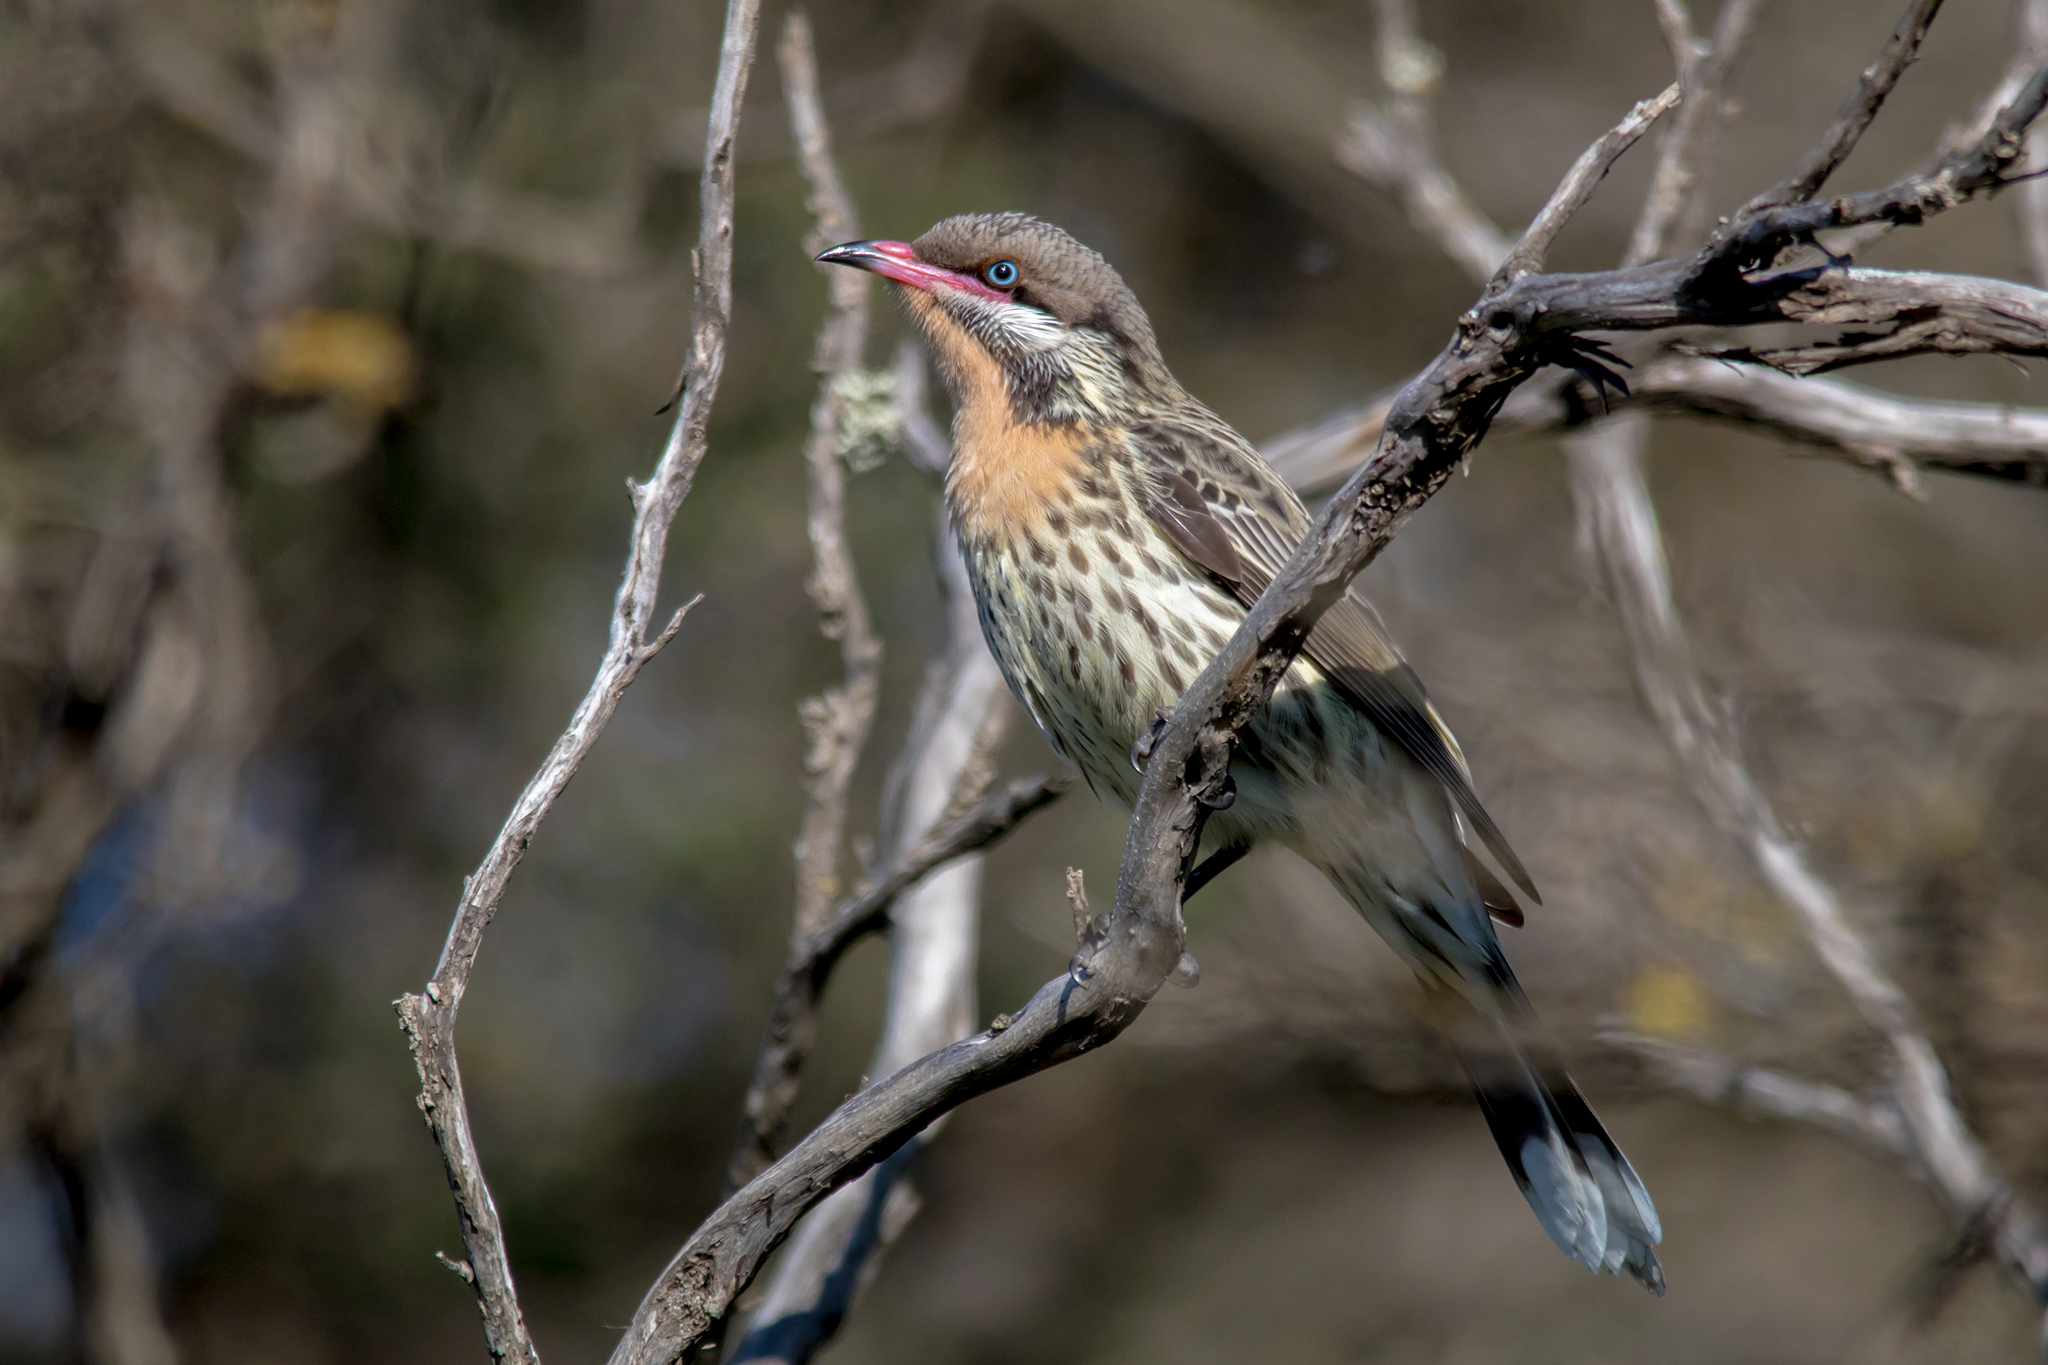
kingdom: Animalia
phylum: Chordata
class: Aves
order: Passeriformes
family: Meliphagidae
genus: Acanthagenys
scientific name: Acanthagenys rufogularis
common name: Spiny-cheeked honeyeater
